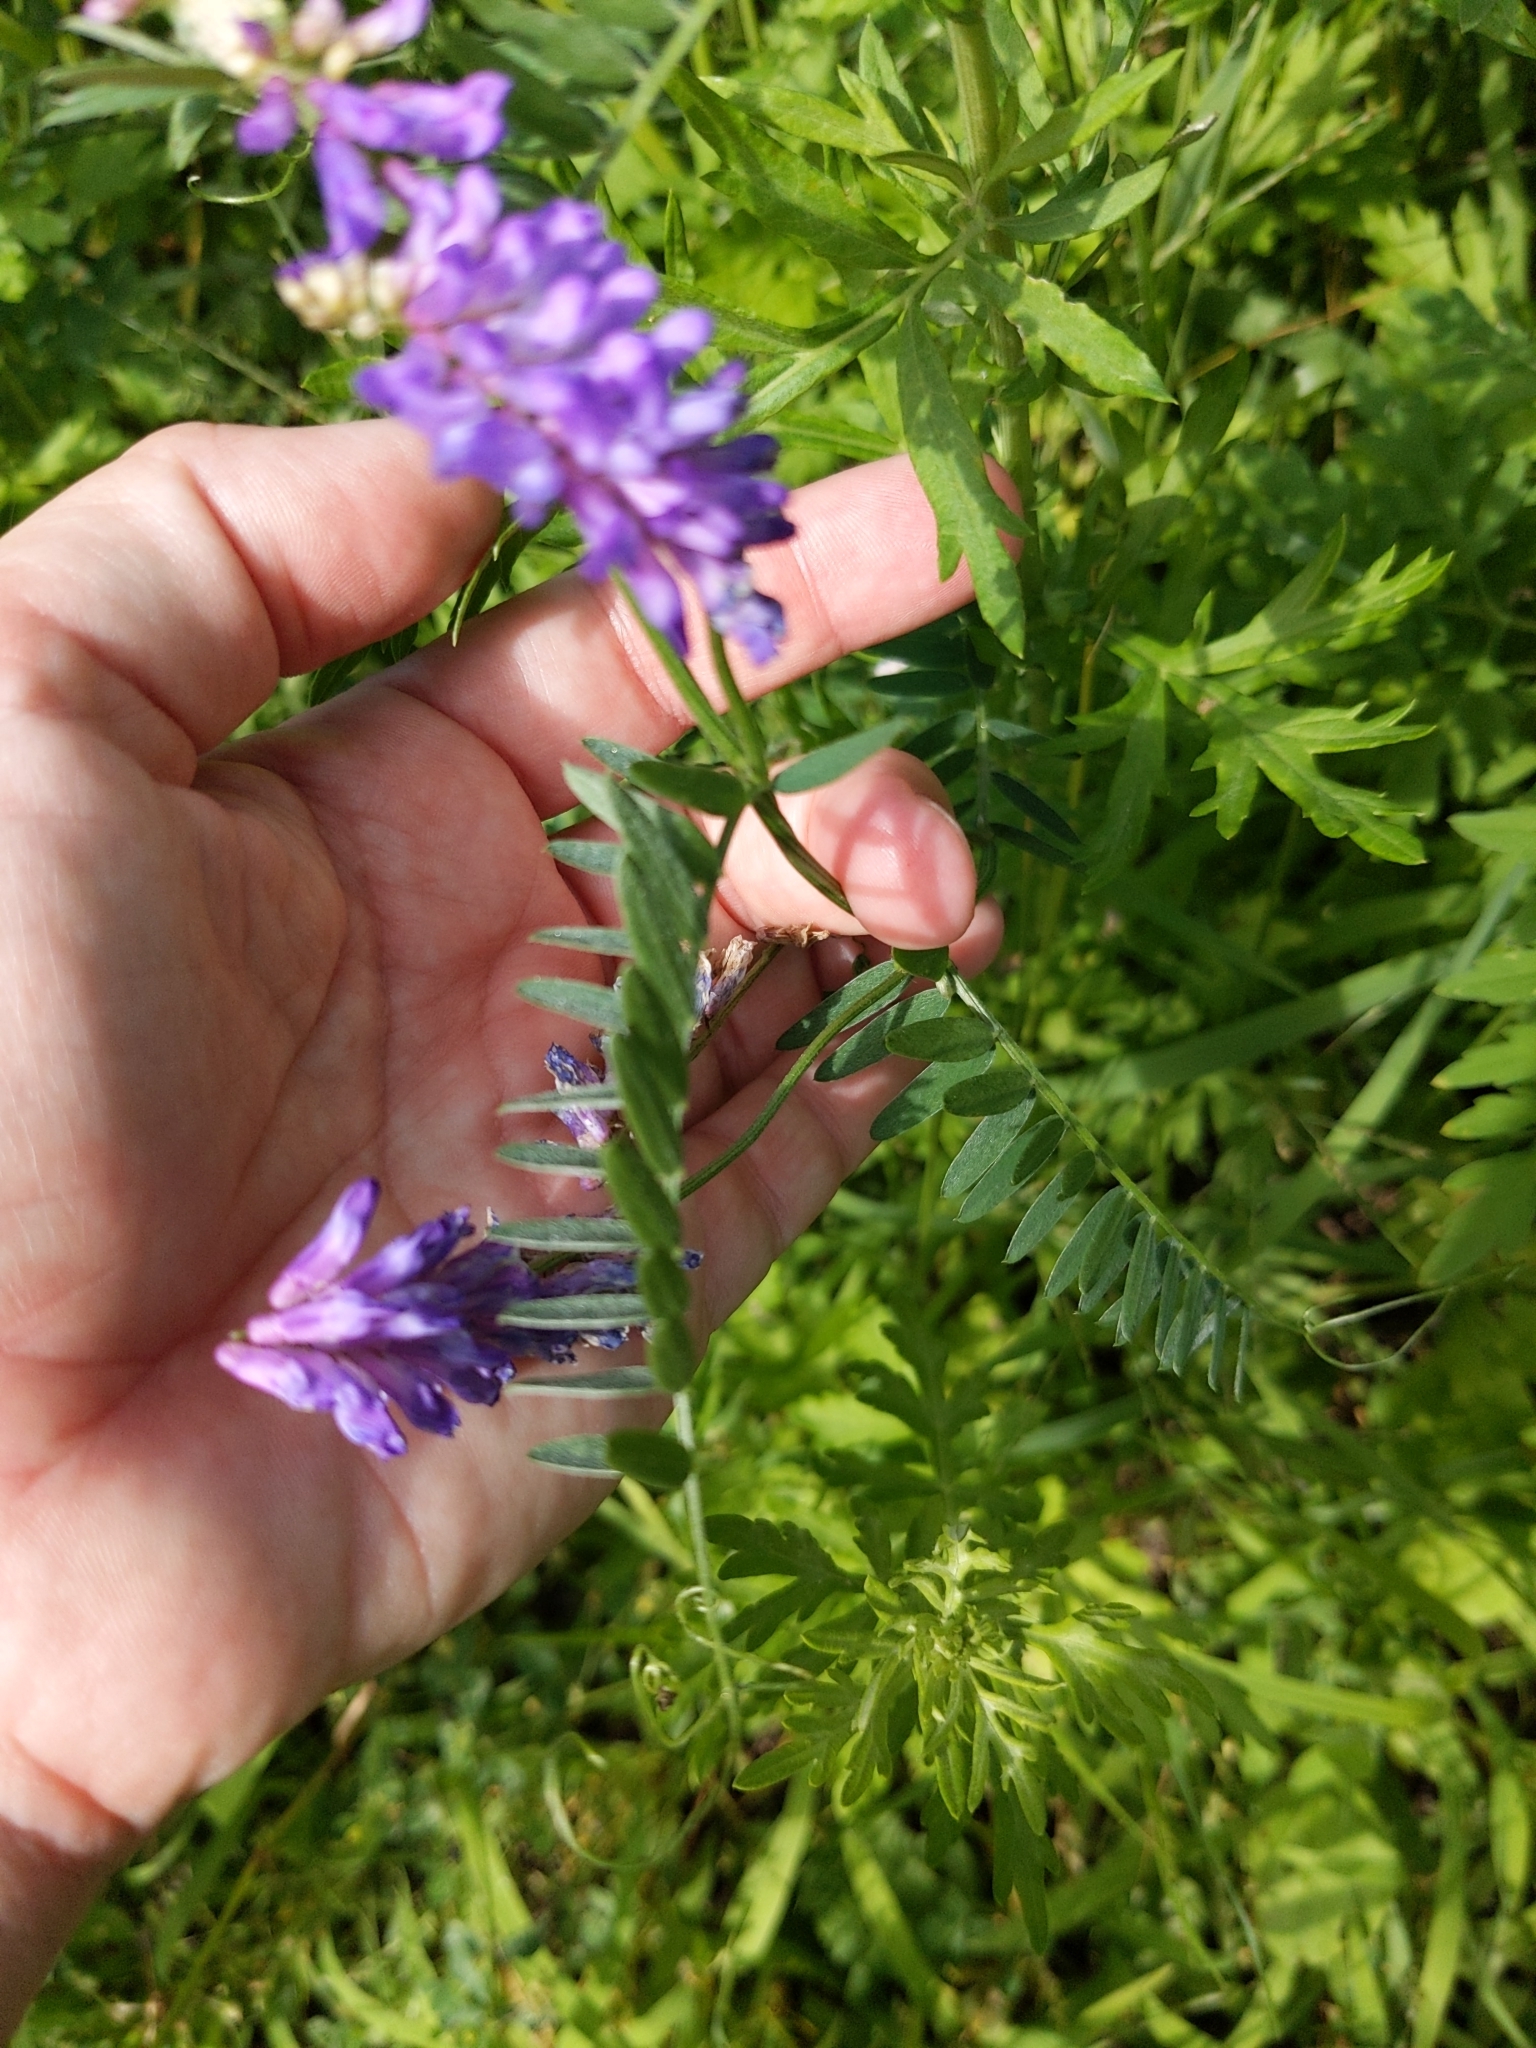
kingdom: Plantae
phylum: Tracheophyta
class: Magnoliopsida
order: Fabales
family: Fabaceae
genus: Vicia
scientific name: Vicia cracca
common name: Bird vetch
